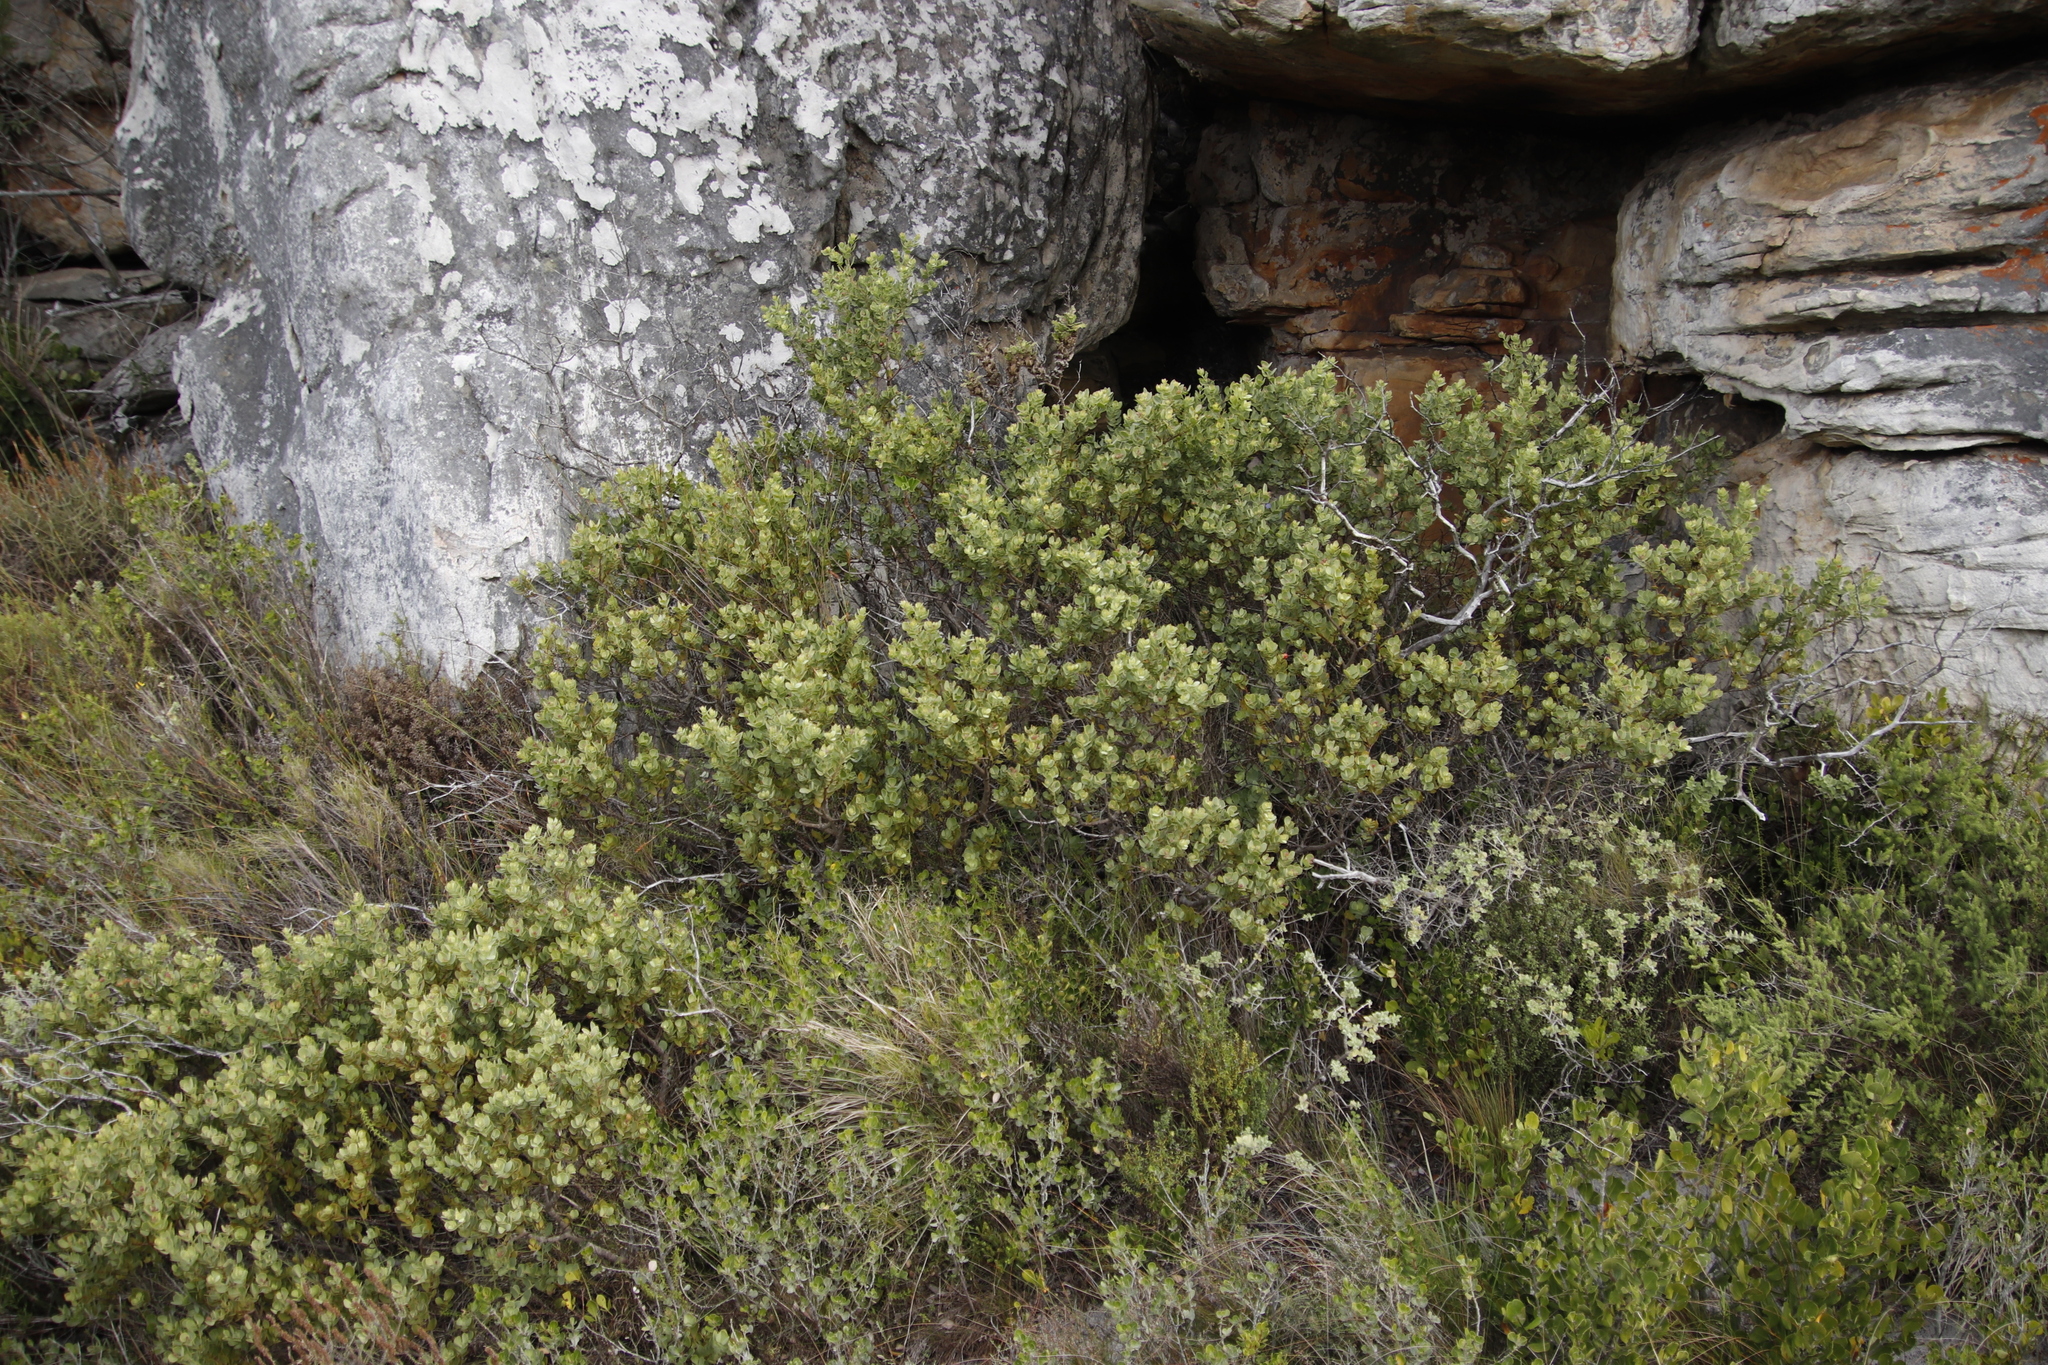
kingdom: Plantae
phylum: Tracheophyta
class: Magnoliopsida
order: Santalales
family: Santalaceae
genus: Osyris
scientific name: Osyris compressa
